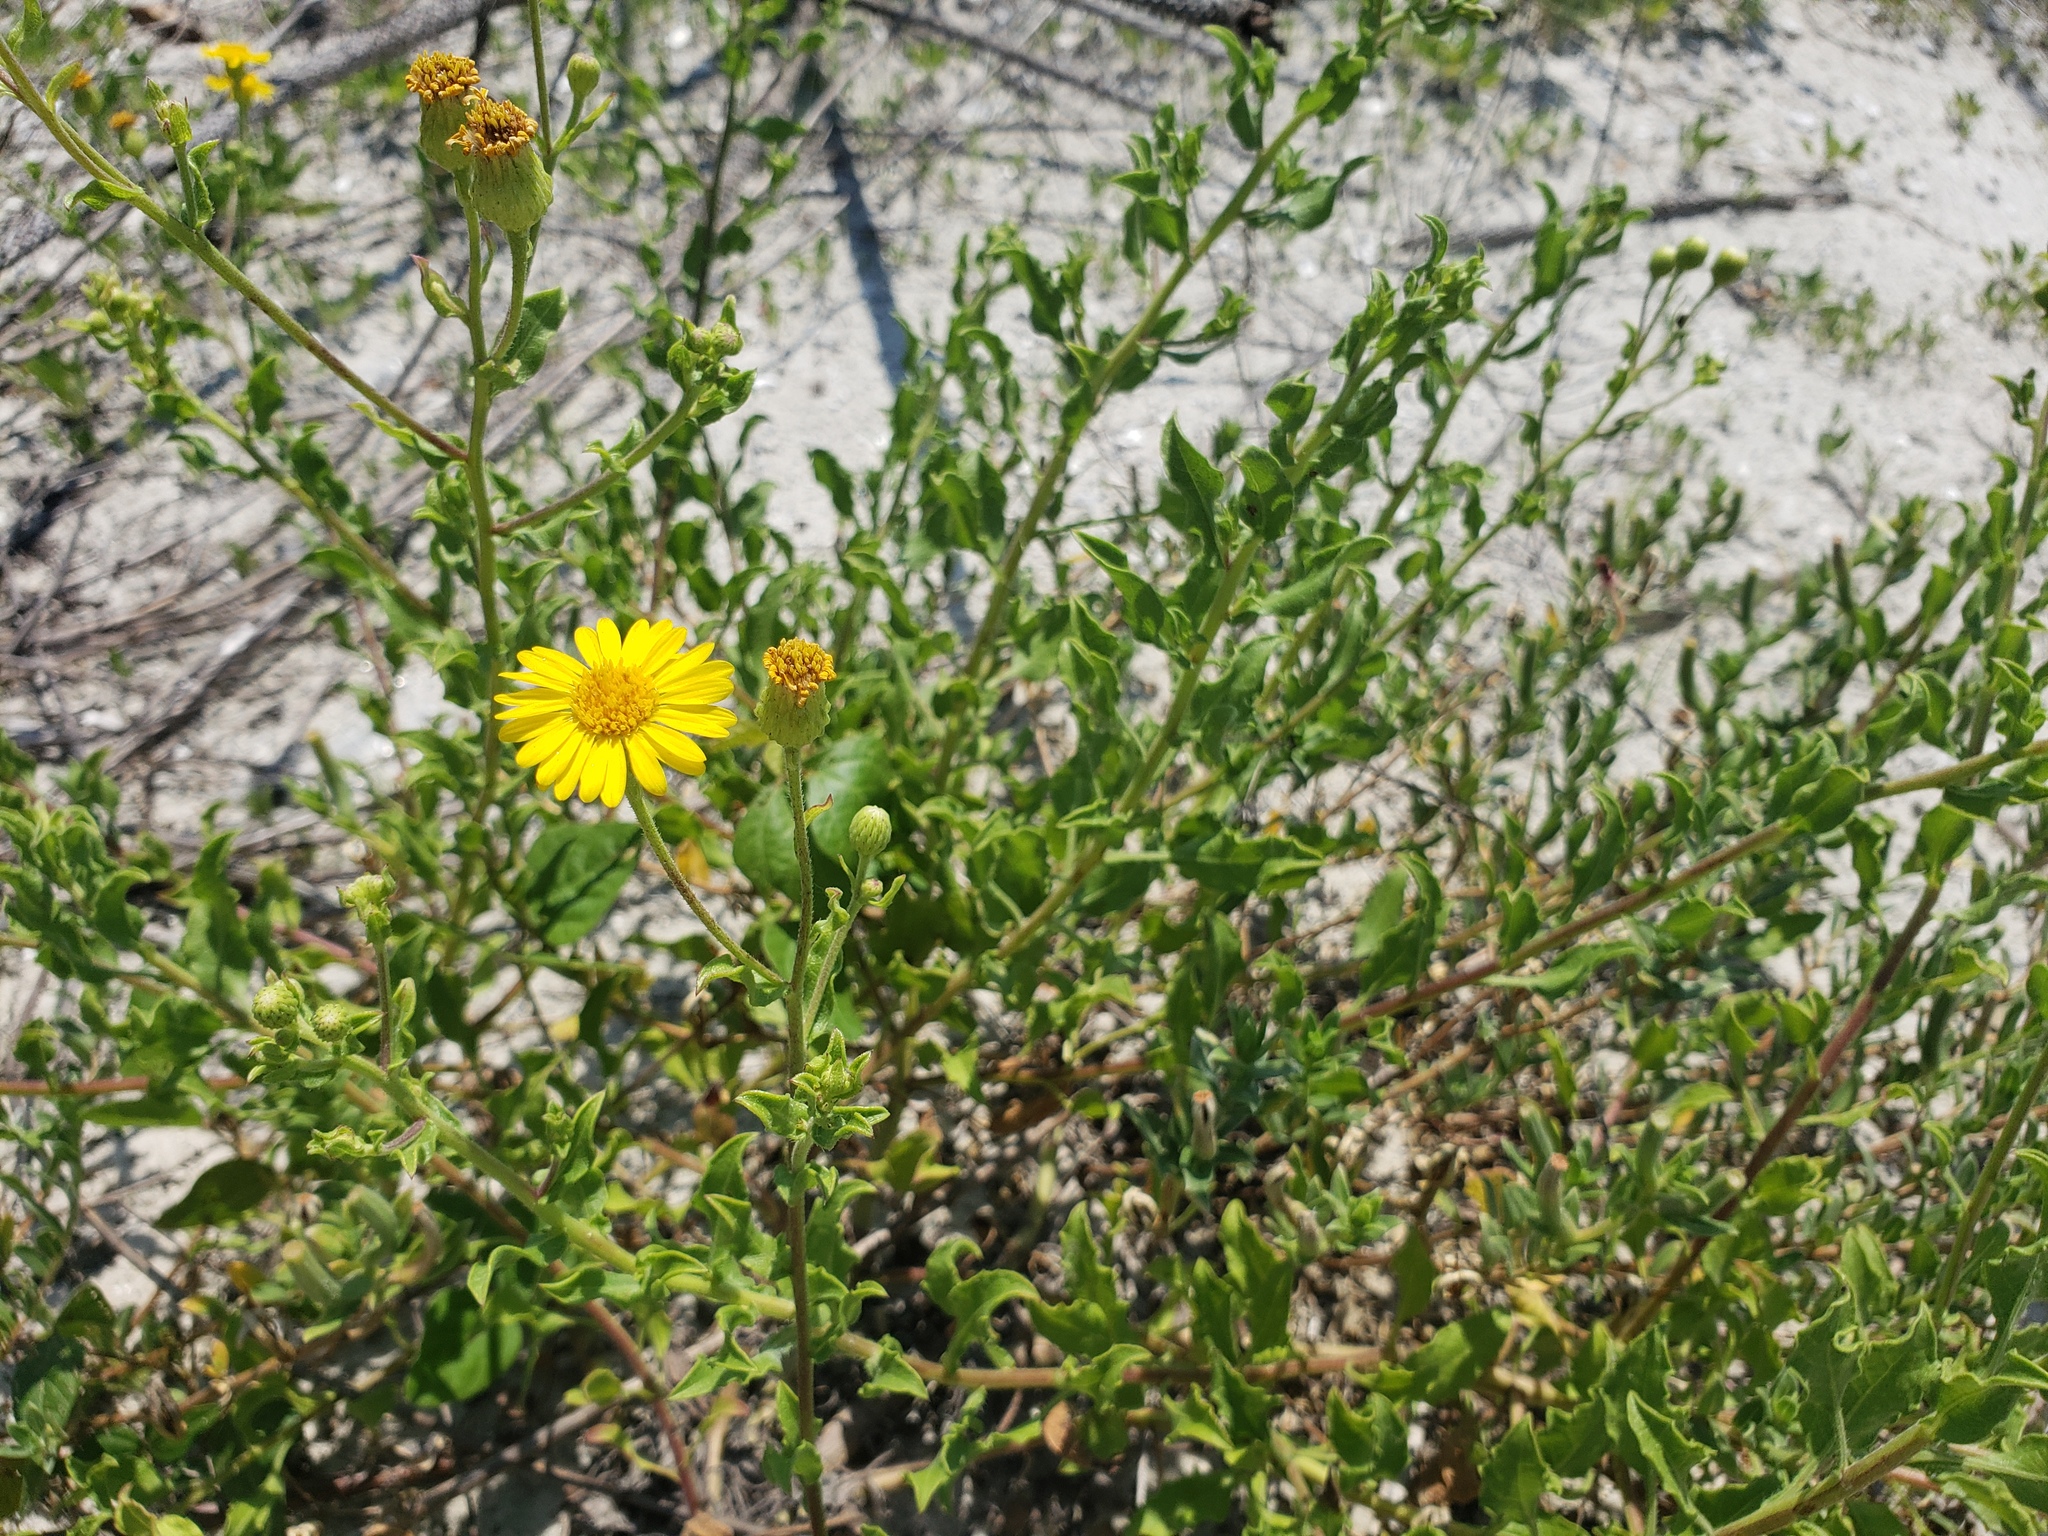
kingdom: Plantae
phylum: Tracheophyta
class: Magnoliopsida
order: Asterales
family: Asteraceae
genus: Heterotheca
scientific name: Heterotheca subaxillaris
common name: Camphorweed
